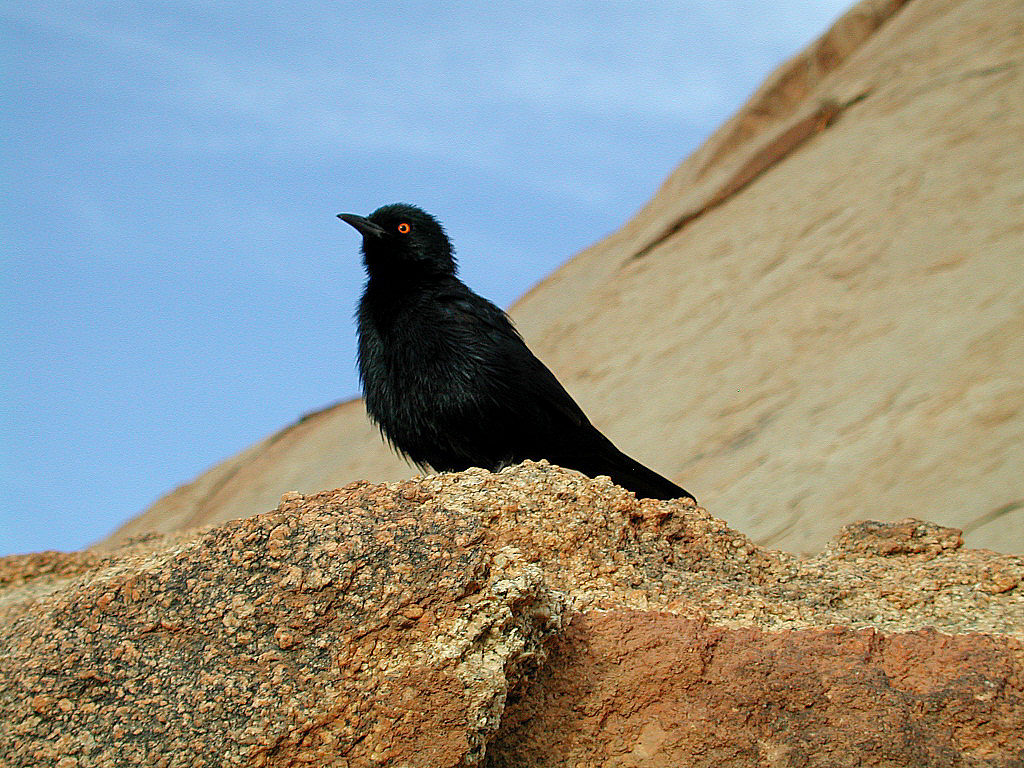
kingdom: Animalia
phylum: Chordata
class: Aves
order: Passeriformes
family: Sturnidae
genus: Onychognathus
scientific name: Onychognathus nabouroup
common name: Pale-winged starling
